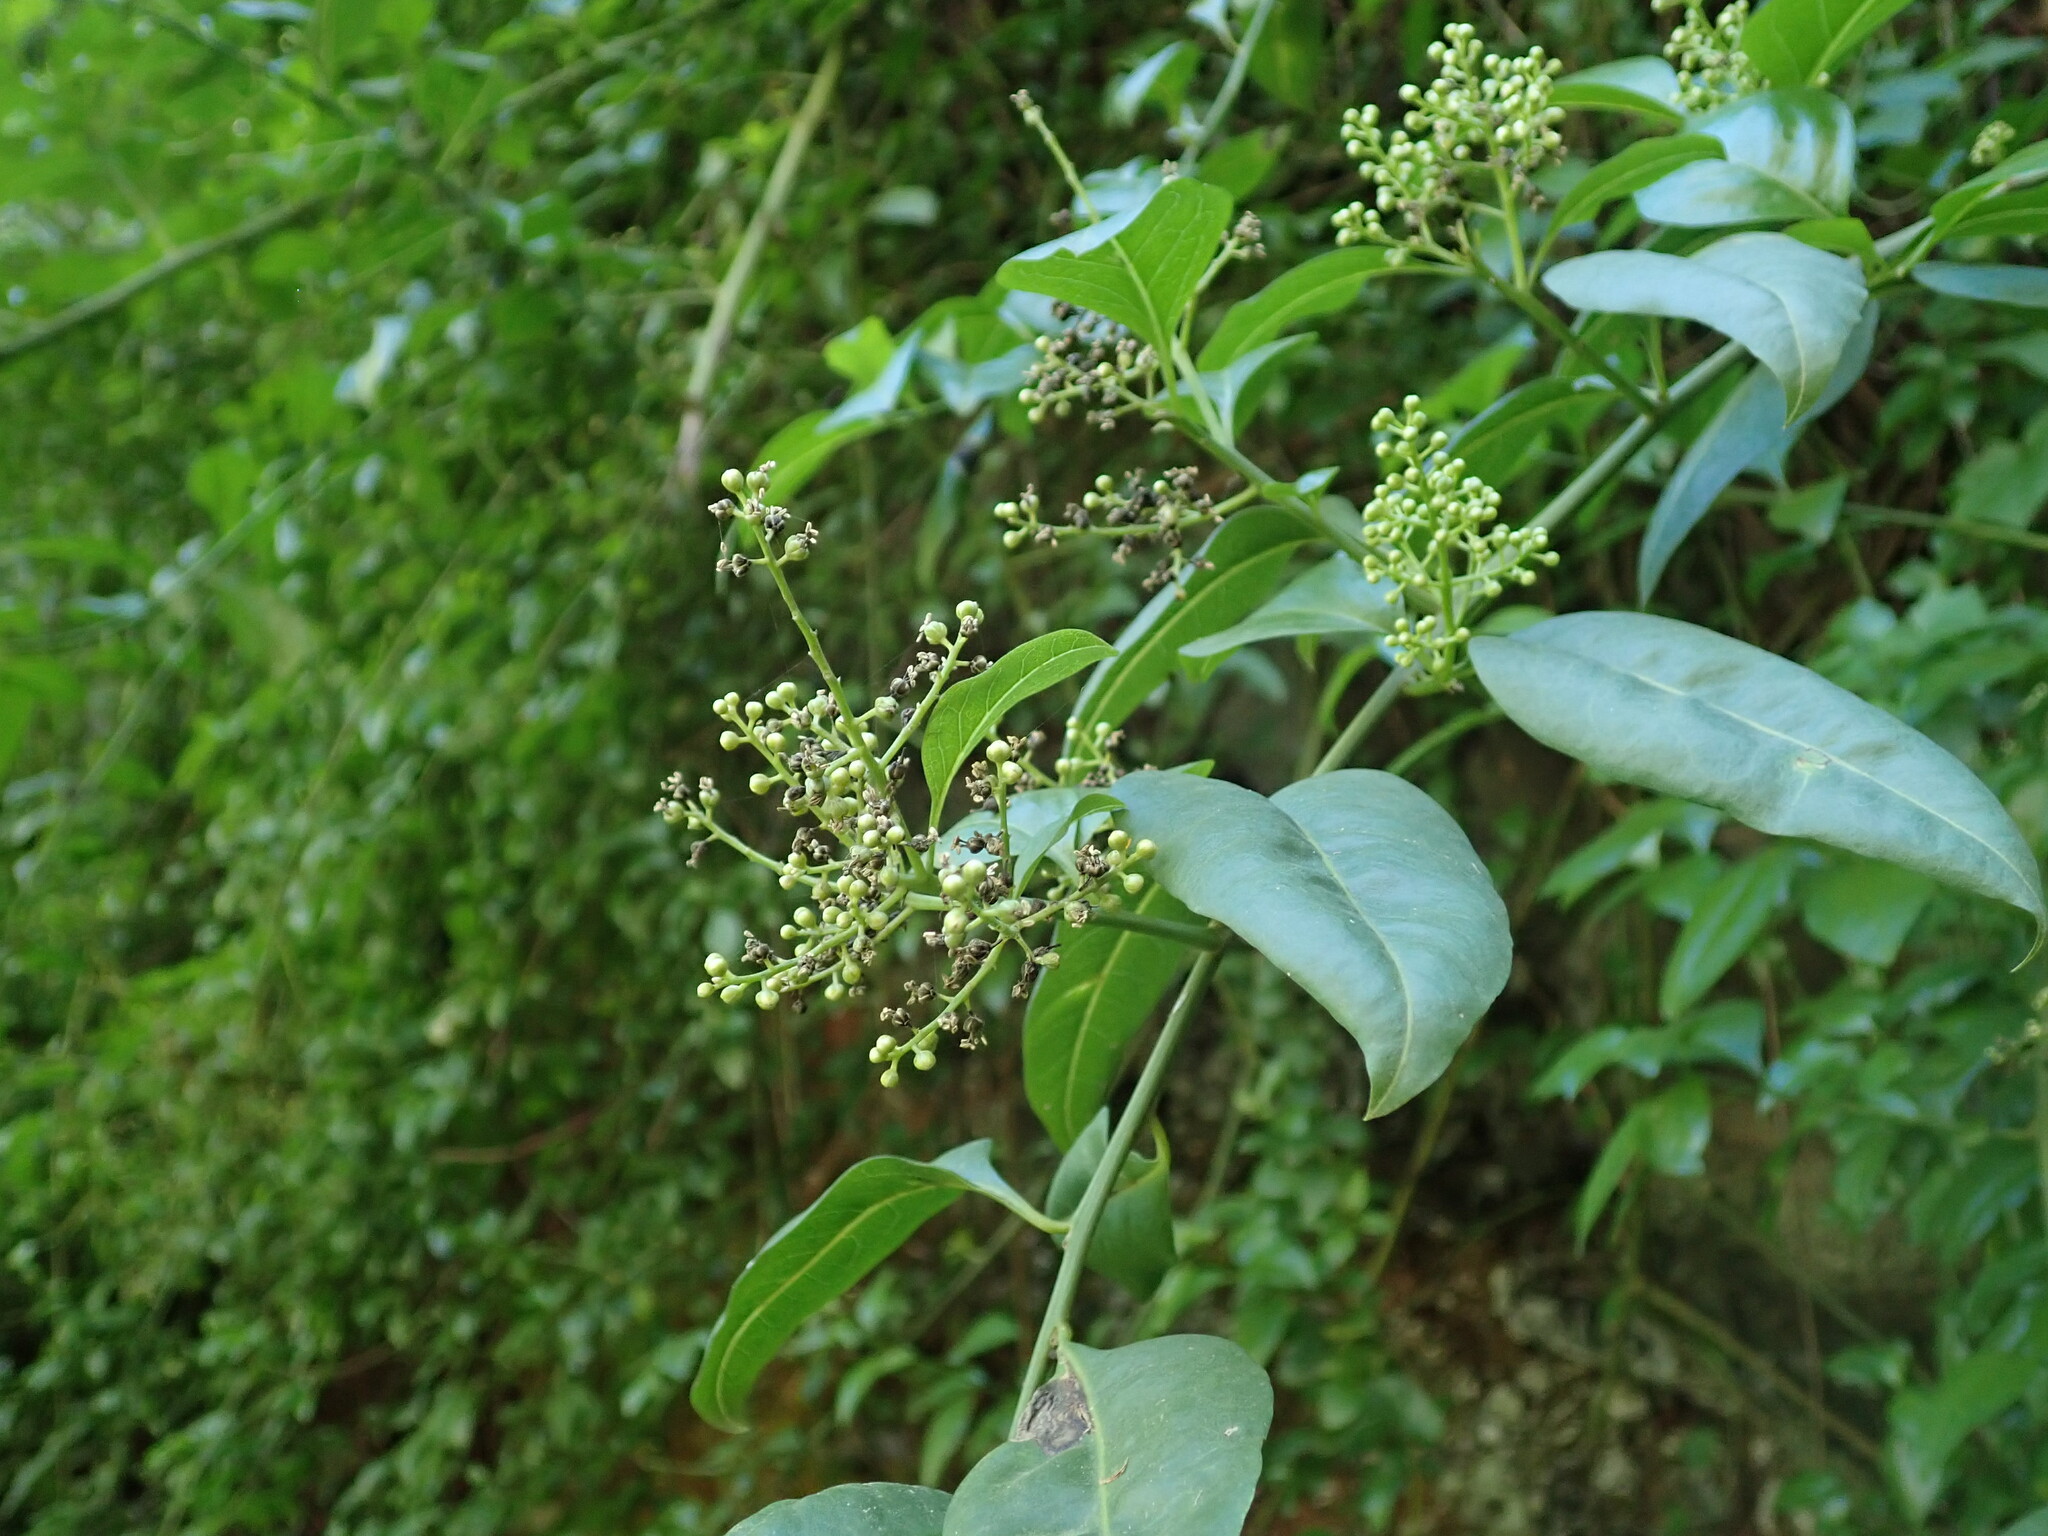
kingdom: Plantae
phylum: Tracheophyta
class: Magnoliopsida
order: Caryophyllales
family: Amaranthaceae
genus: Bosea
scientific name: Bosea yervamora
